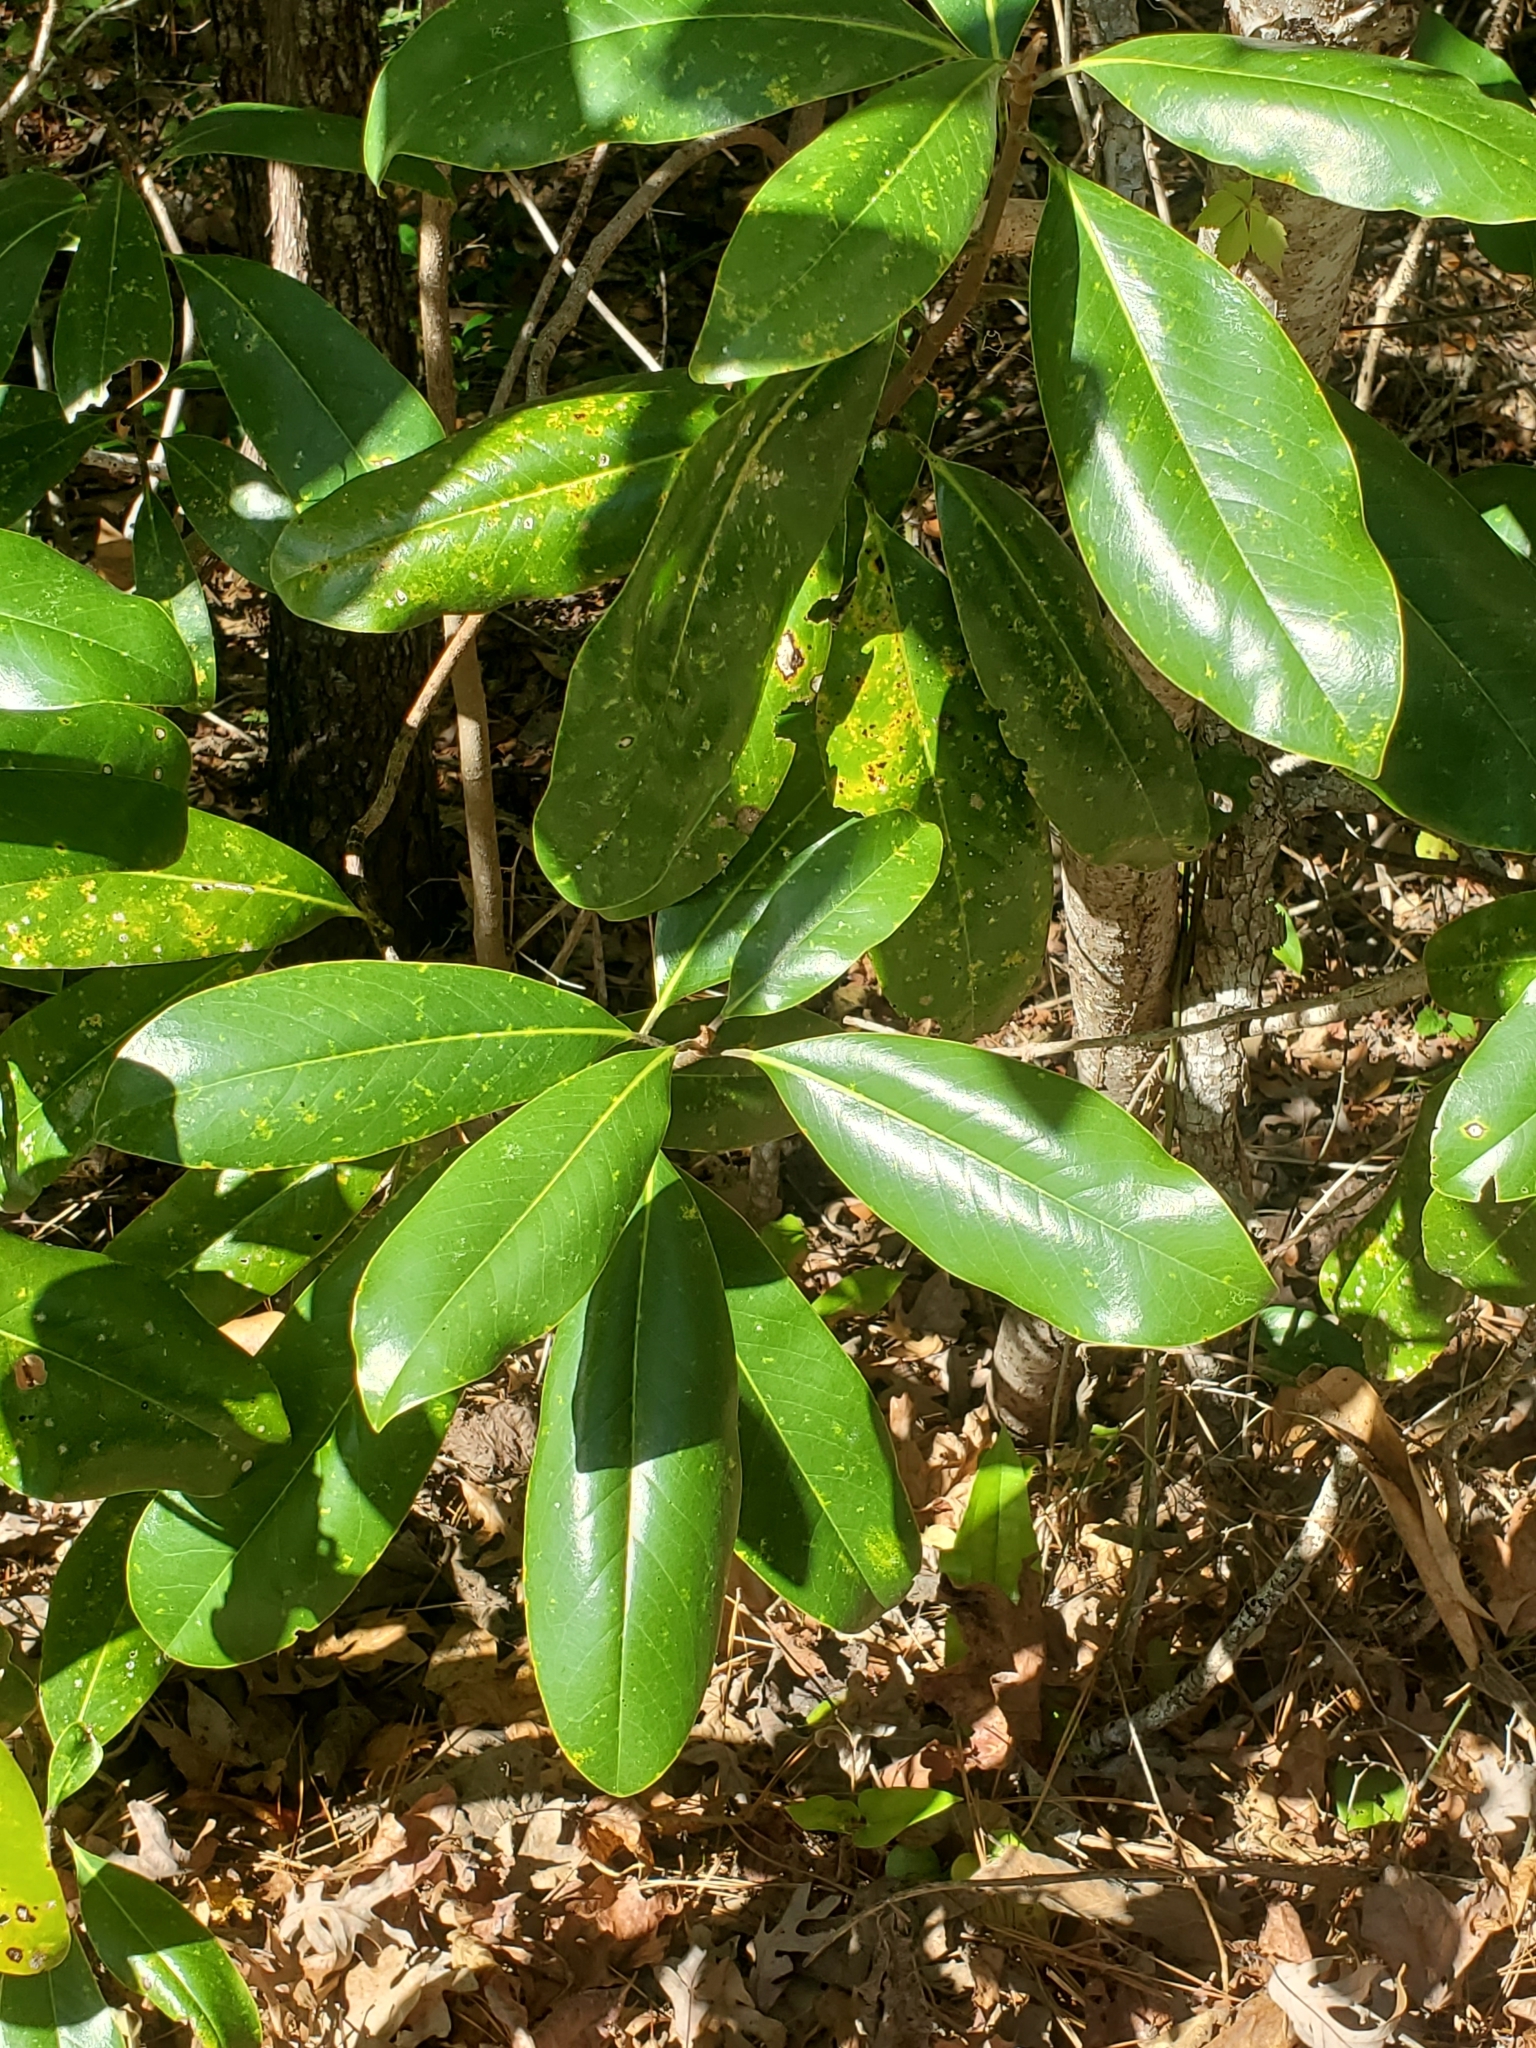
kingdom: Plantae
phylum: Tracheophyta
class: Magnoliopsida
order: Magnoliales
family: Magnoliaceae
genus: Magnolia
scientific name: Magnolia grandiflora
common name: Southern magnolia
